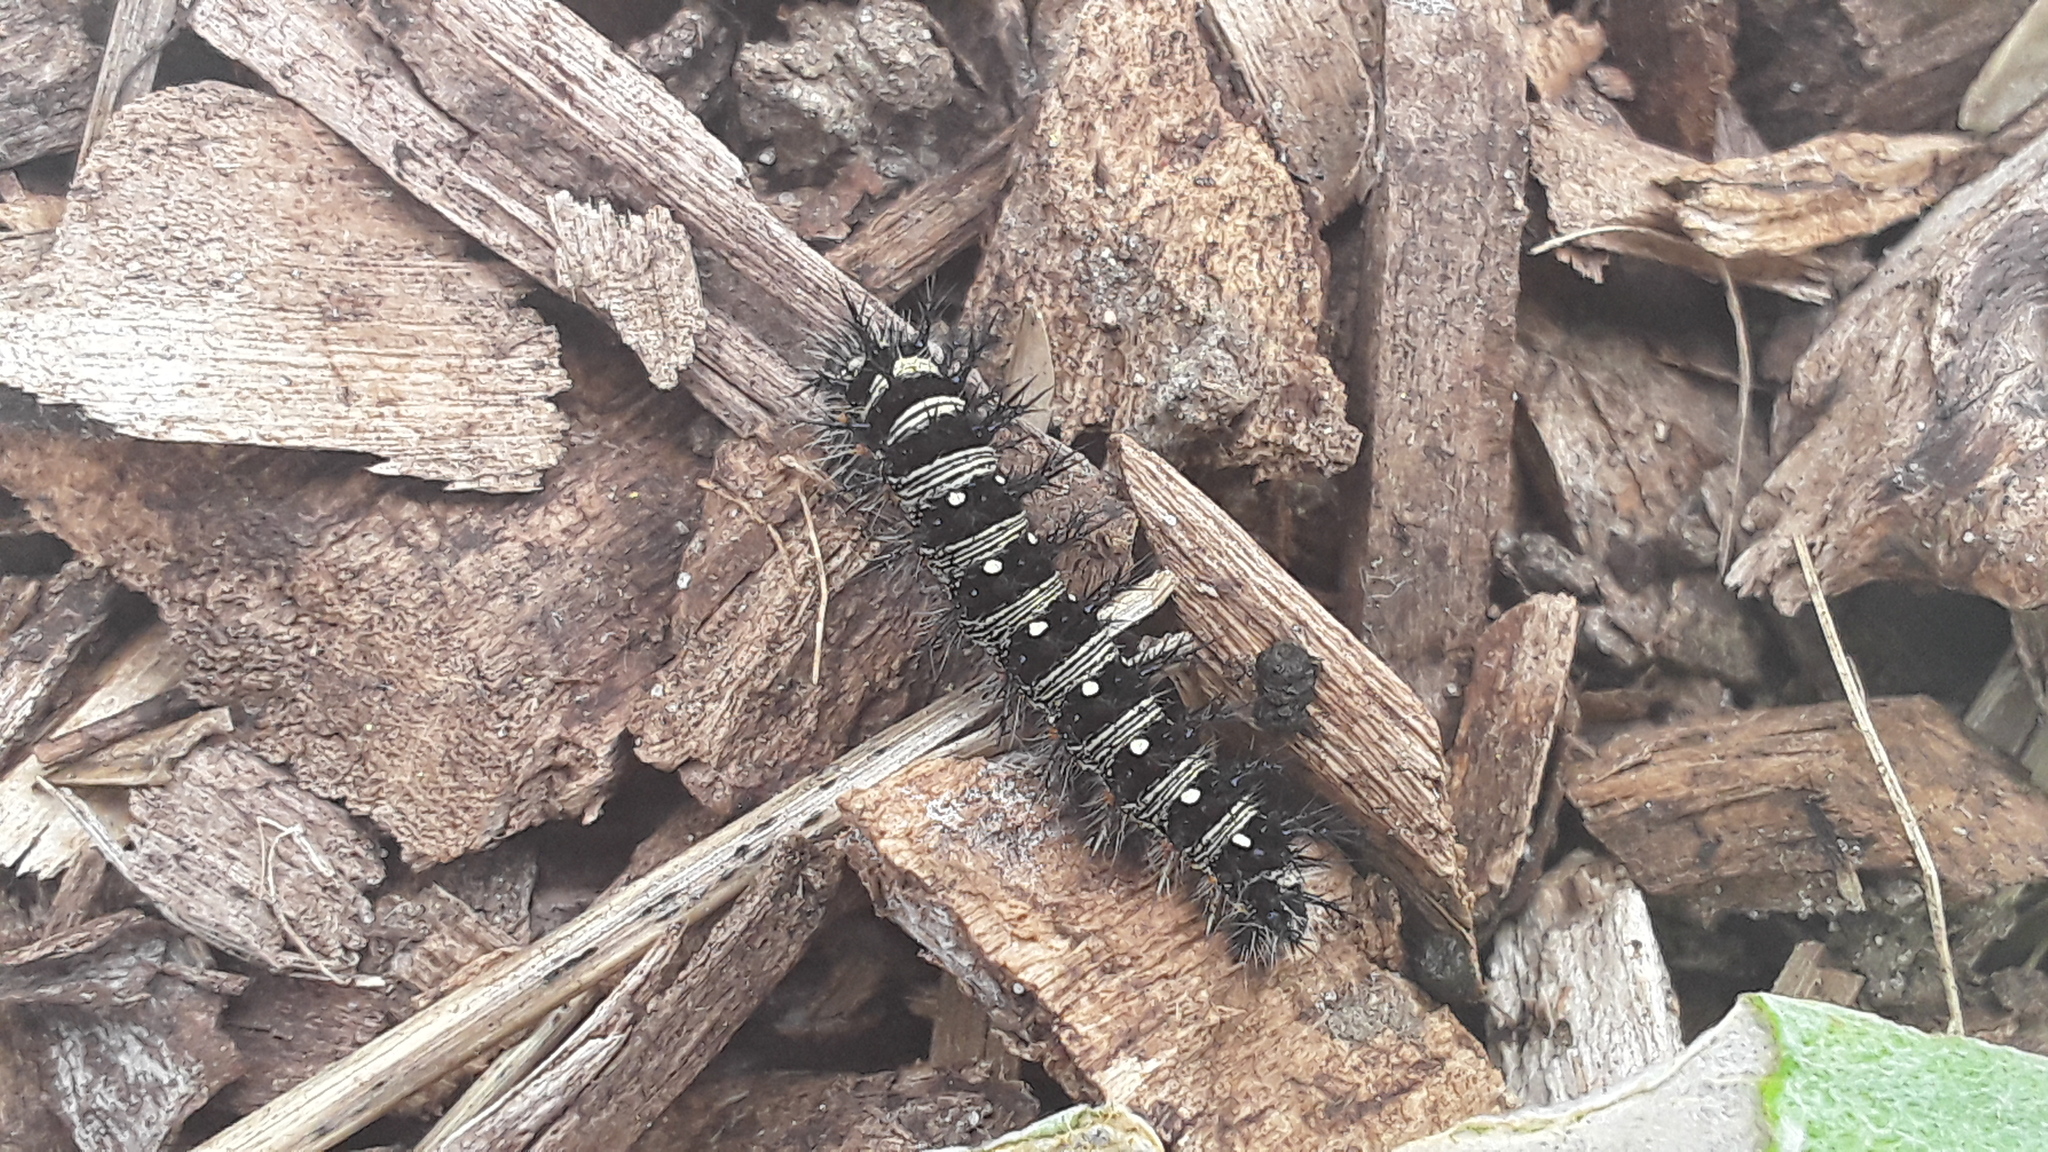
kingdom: Animalia
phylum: Arthropoda
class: Insecta
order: Lepidoptera
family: Nymphalidae
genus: Vanessa
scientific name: Vanessa virginiensis
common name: American lady
